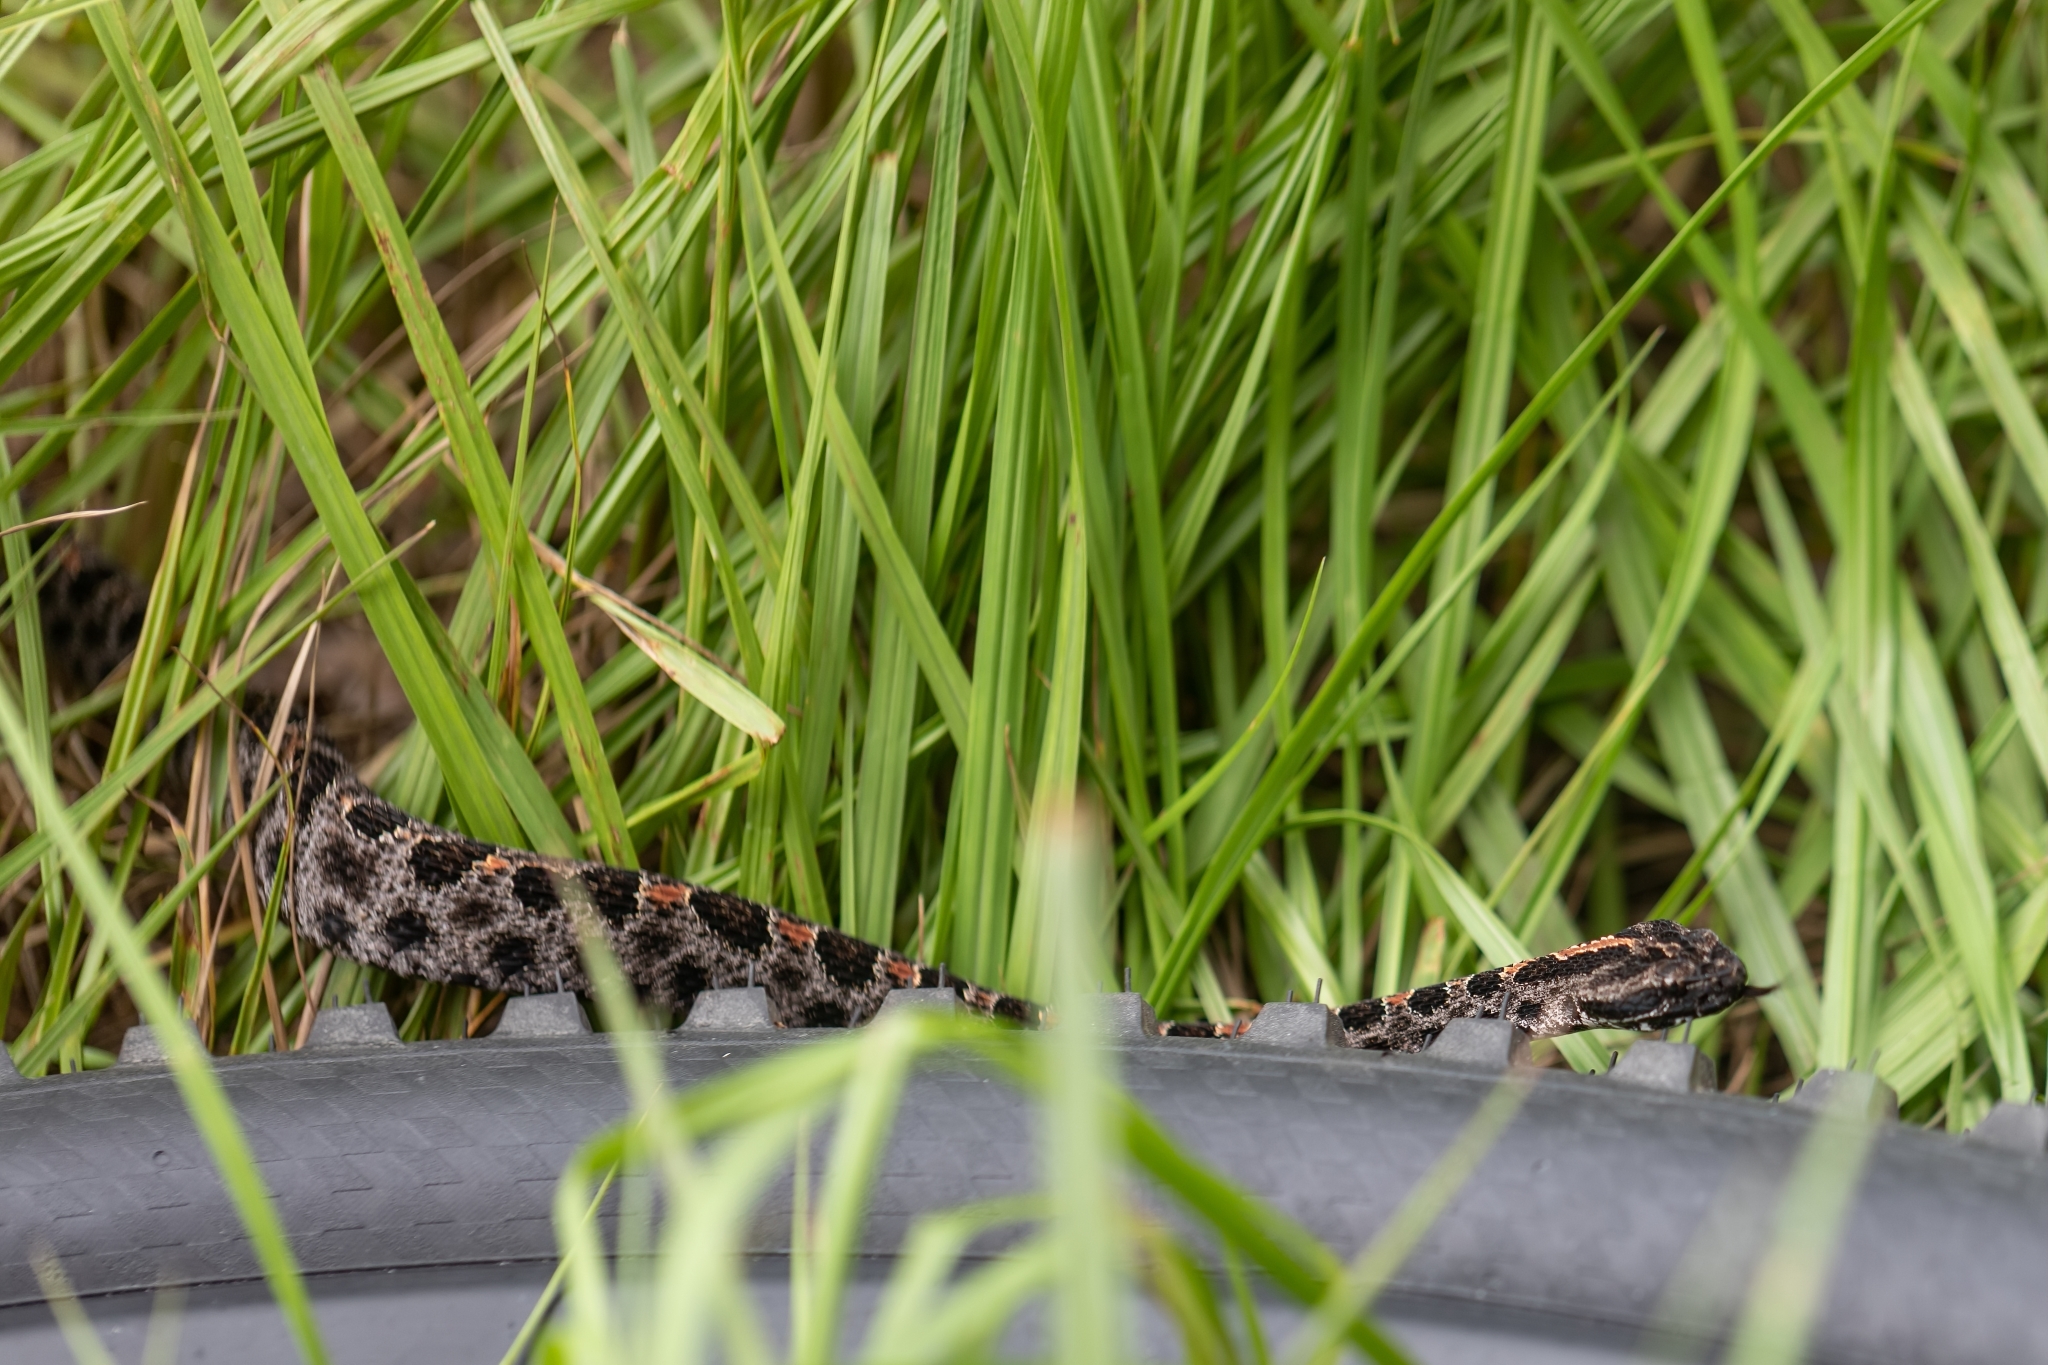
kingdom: Animalia
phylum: Chordata
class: Squamata
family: Viperidae
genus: Sistrurus
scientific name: Sistrurus miliarius
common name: Pygmy rattlesnake
